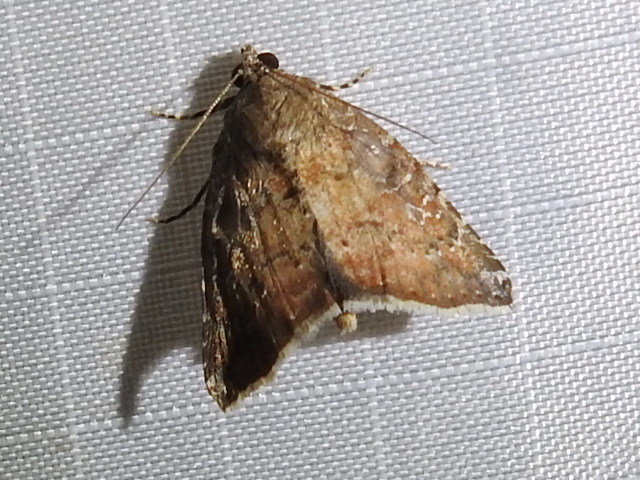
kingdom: Animalia
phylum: Arthropoda
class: Insecta
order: Lepidoptera
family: Noctuidae
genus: Amyna
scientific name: Amyna bullula
